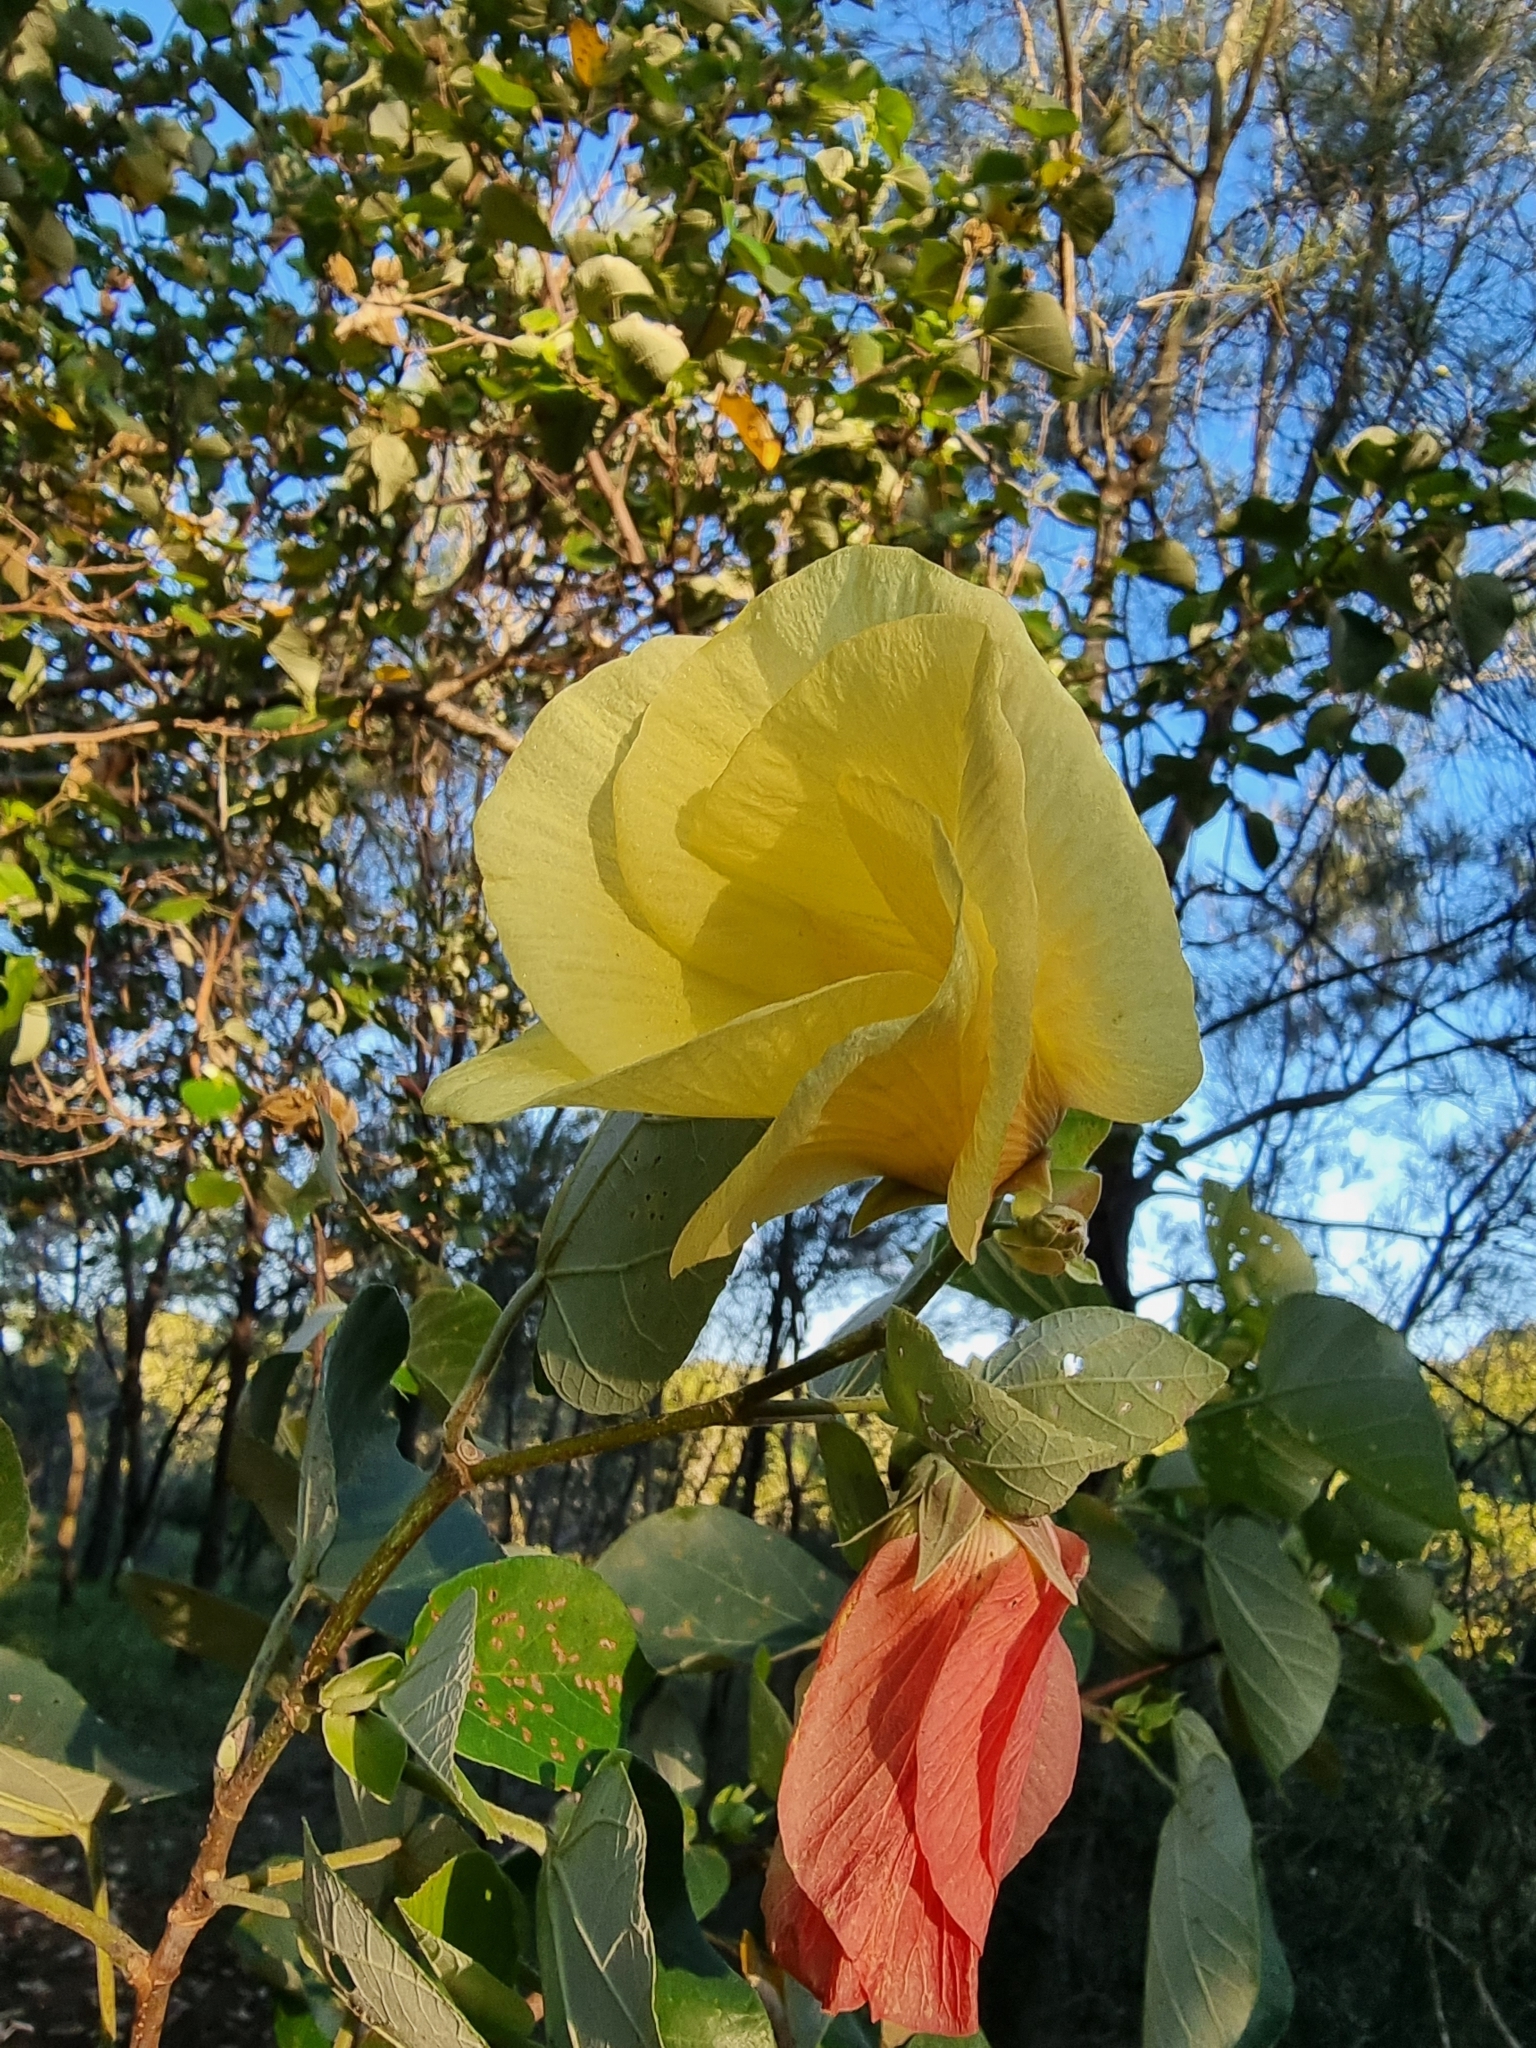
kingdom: Plantae
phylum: Tracheophyta
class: Magnoliopsida
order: Malvales
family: Malvaceae
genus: Talipariti
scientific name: Talipariti tiliaceum
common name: Sea hibiscus
